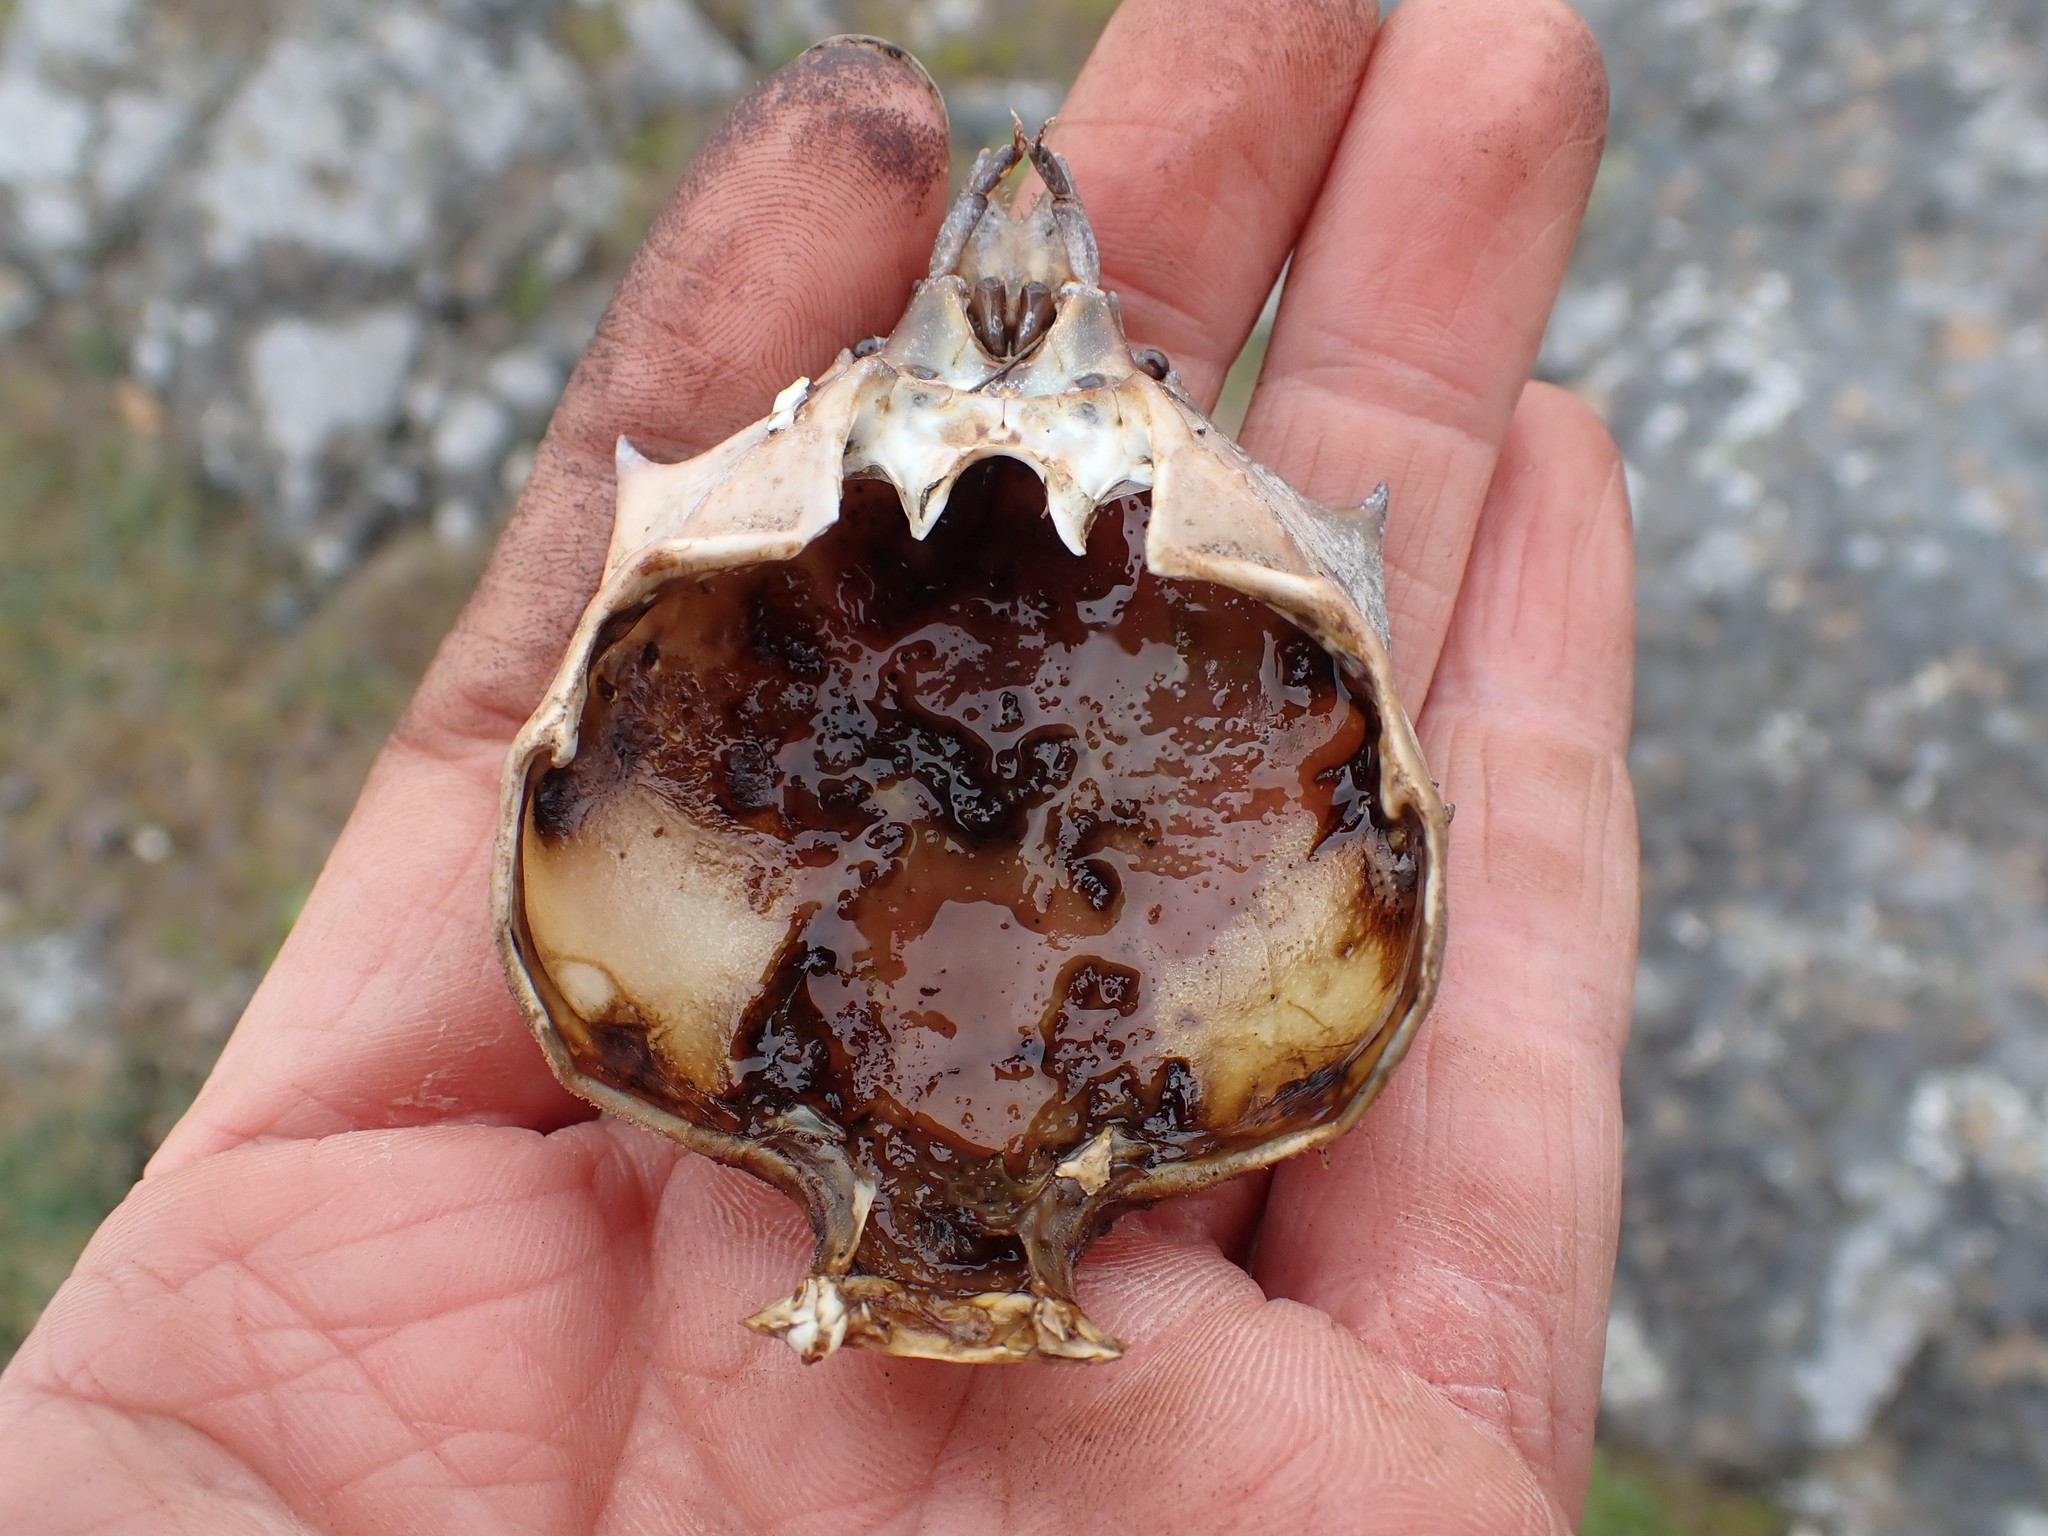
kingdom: Animalia
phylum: Arthropoda
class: Malacostraca
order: Decapoda
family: Epialtidae
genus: Pugettia
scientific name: Pugettia producta
